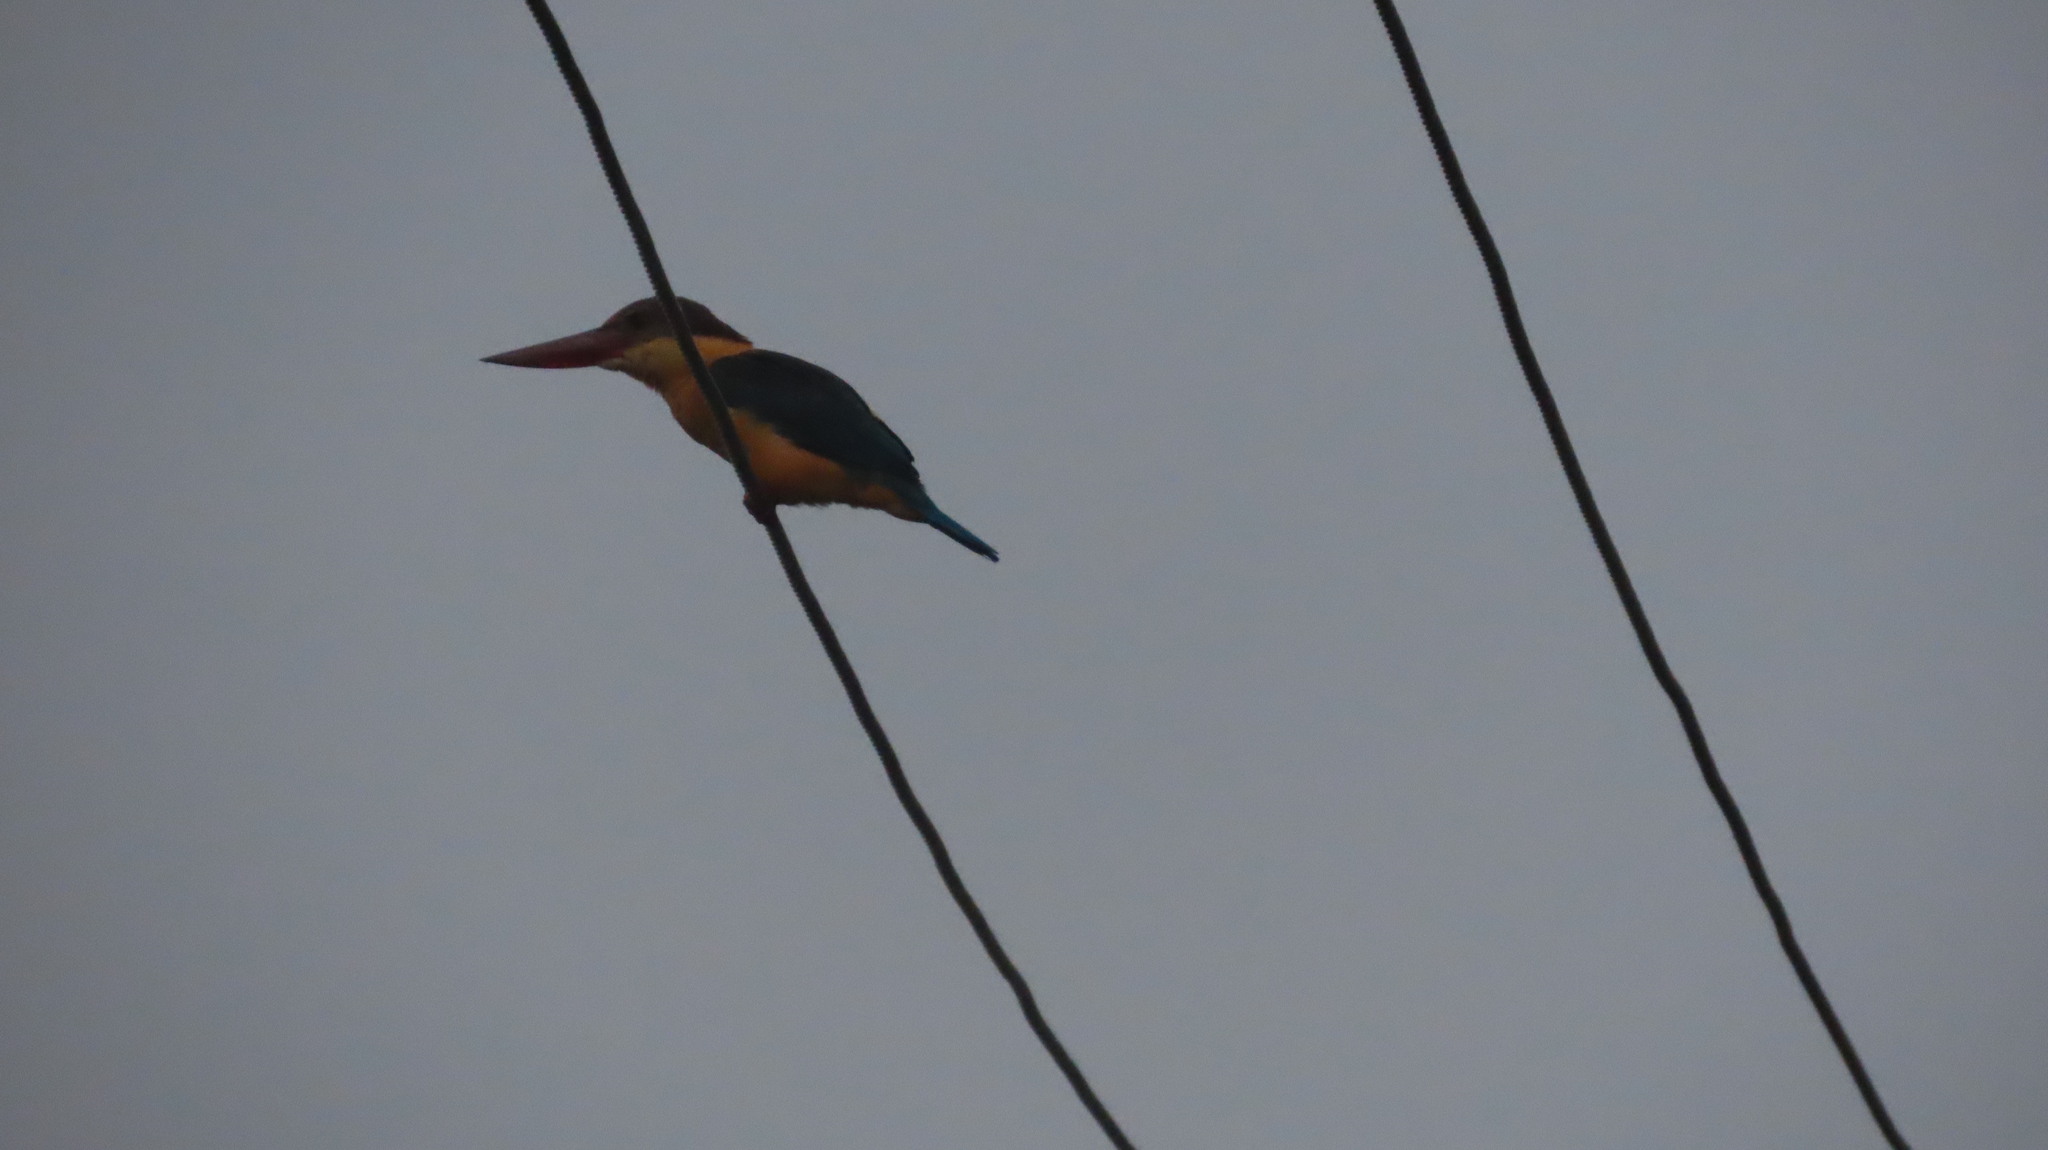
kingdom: Animalia
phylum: Chordata
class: Aves
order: Coraciiformes
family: Alcedinidae
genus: Pelargopsis
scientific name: Pelargopsis capensis
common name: Stork-billed kingfisher
